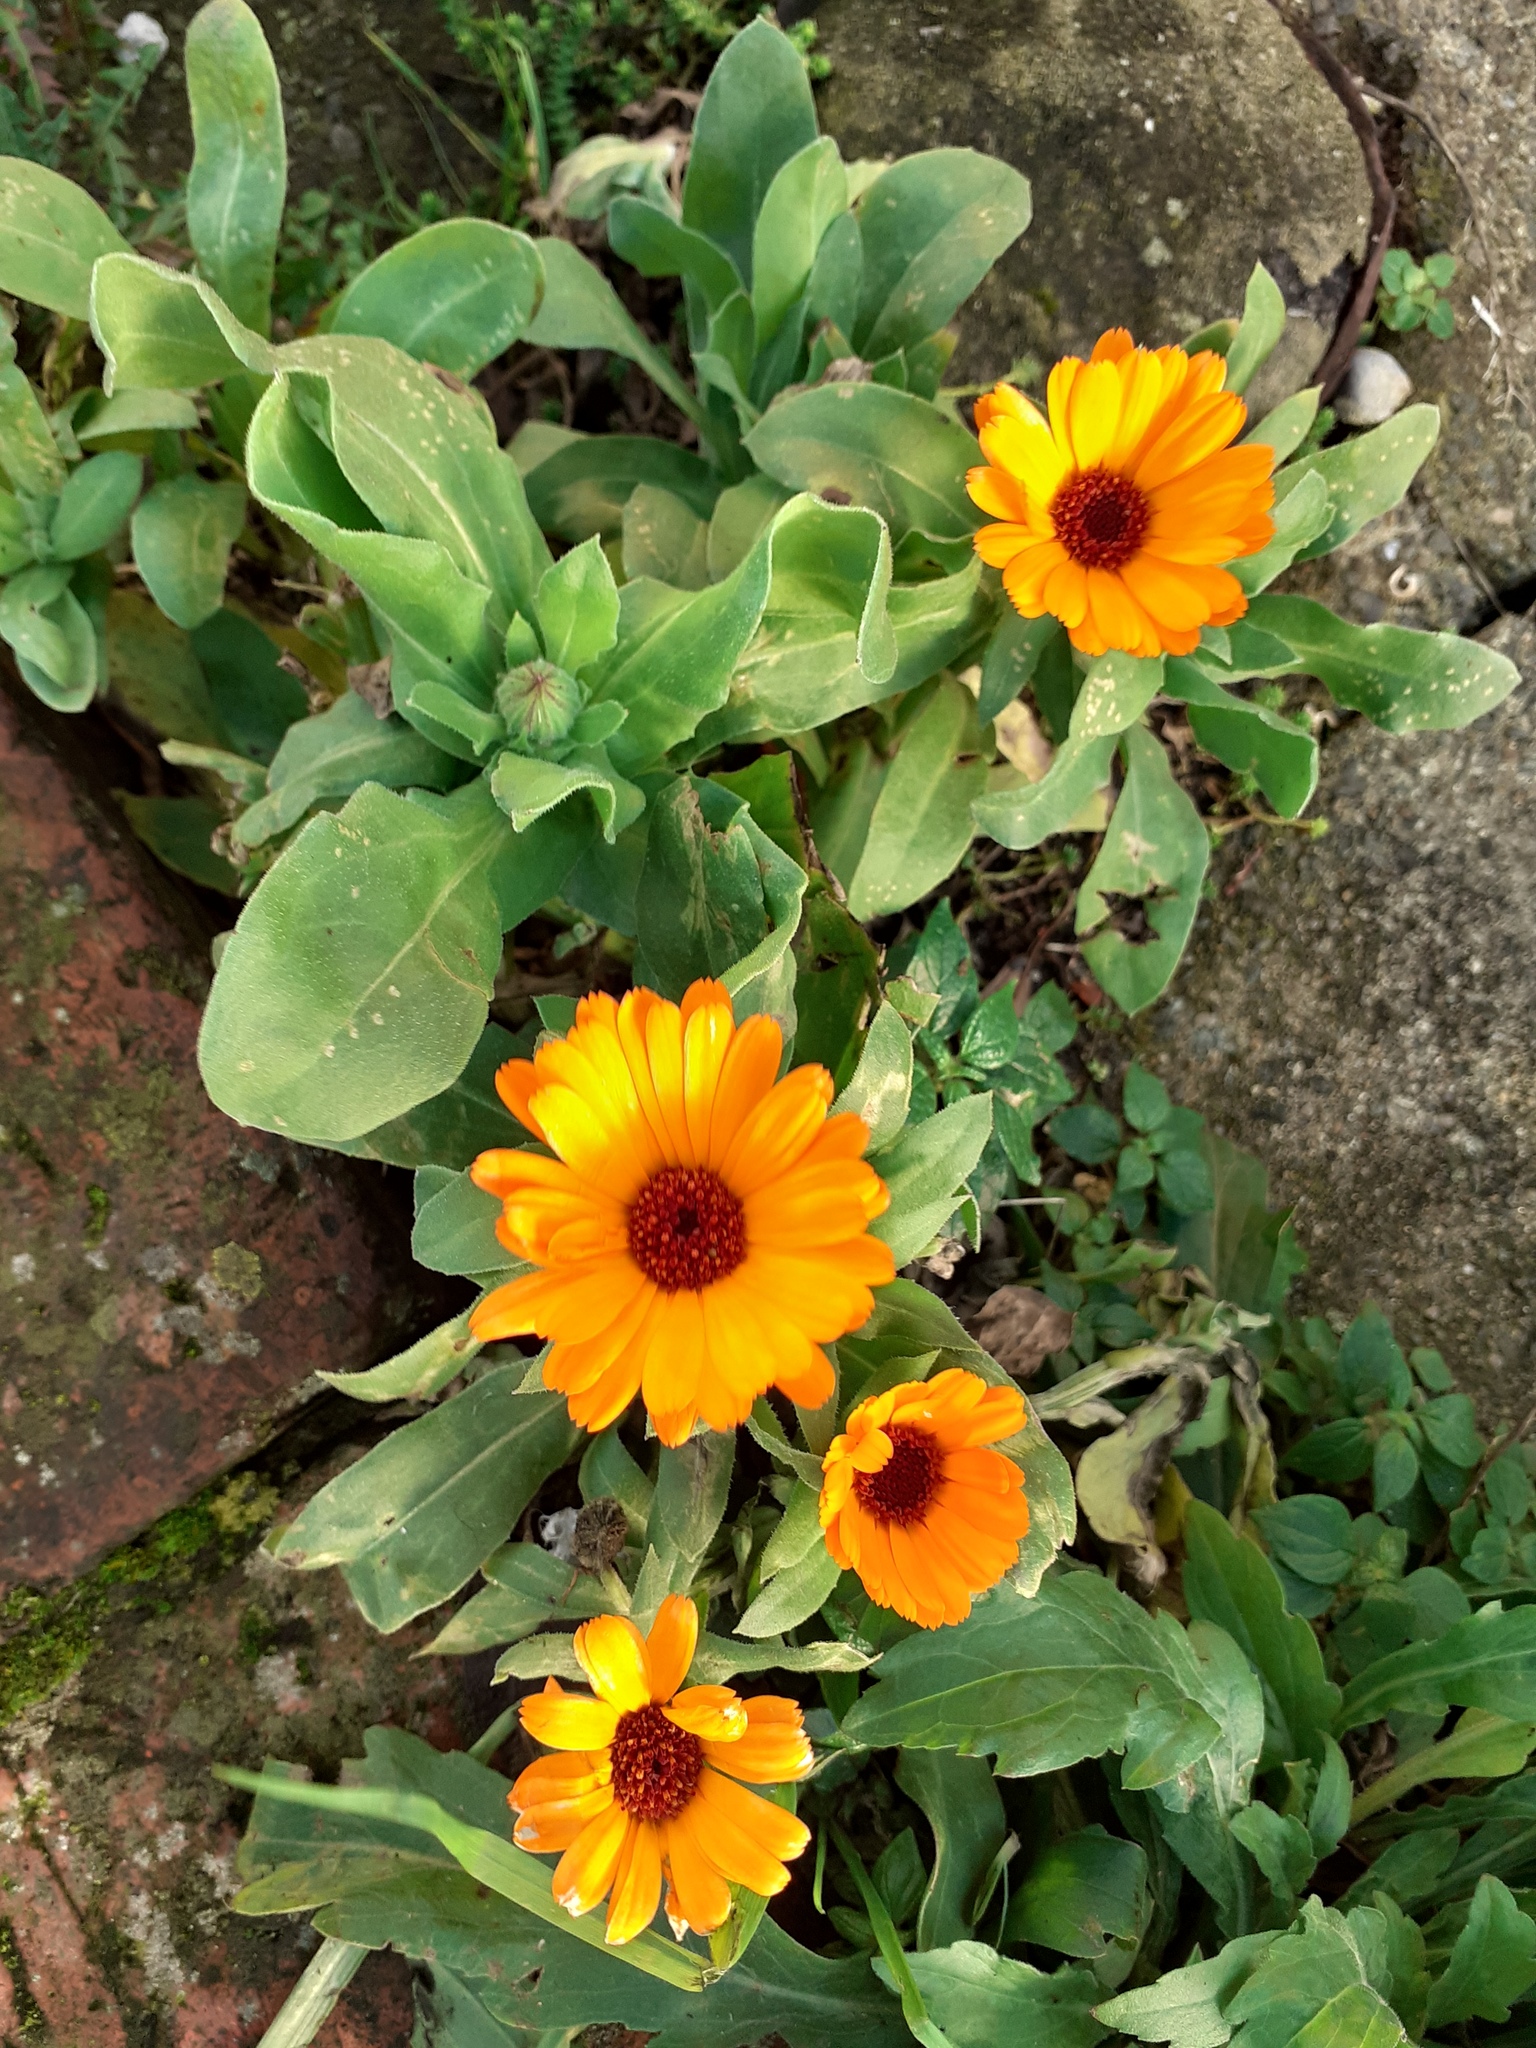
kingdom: Plantae
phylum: Tracheophyta
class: Magnoliopsida
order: Asterales
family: Asteraceae
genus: Calendula
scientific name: Calendula officinalis
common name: Pot marigold
